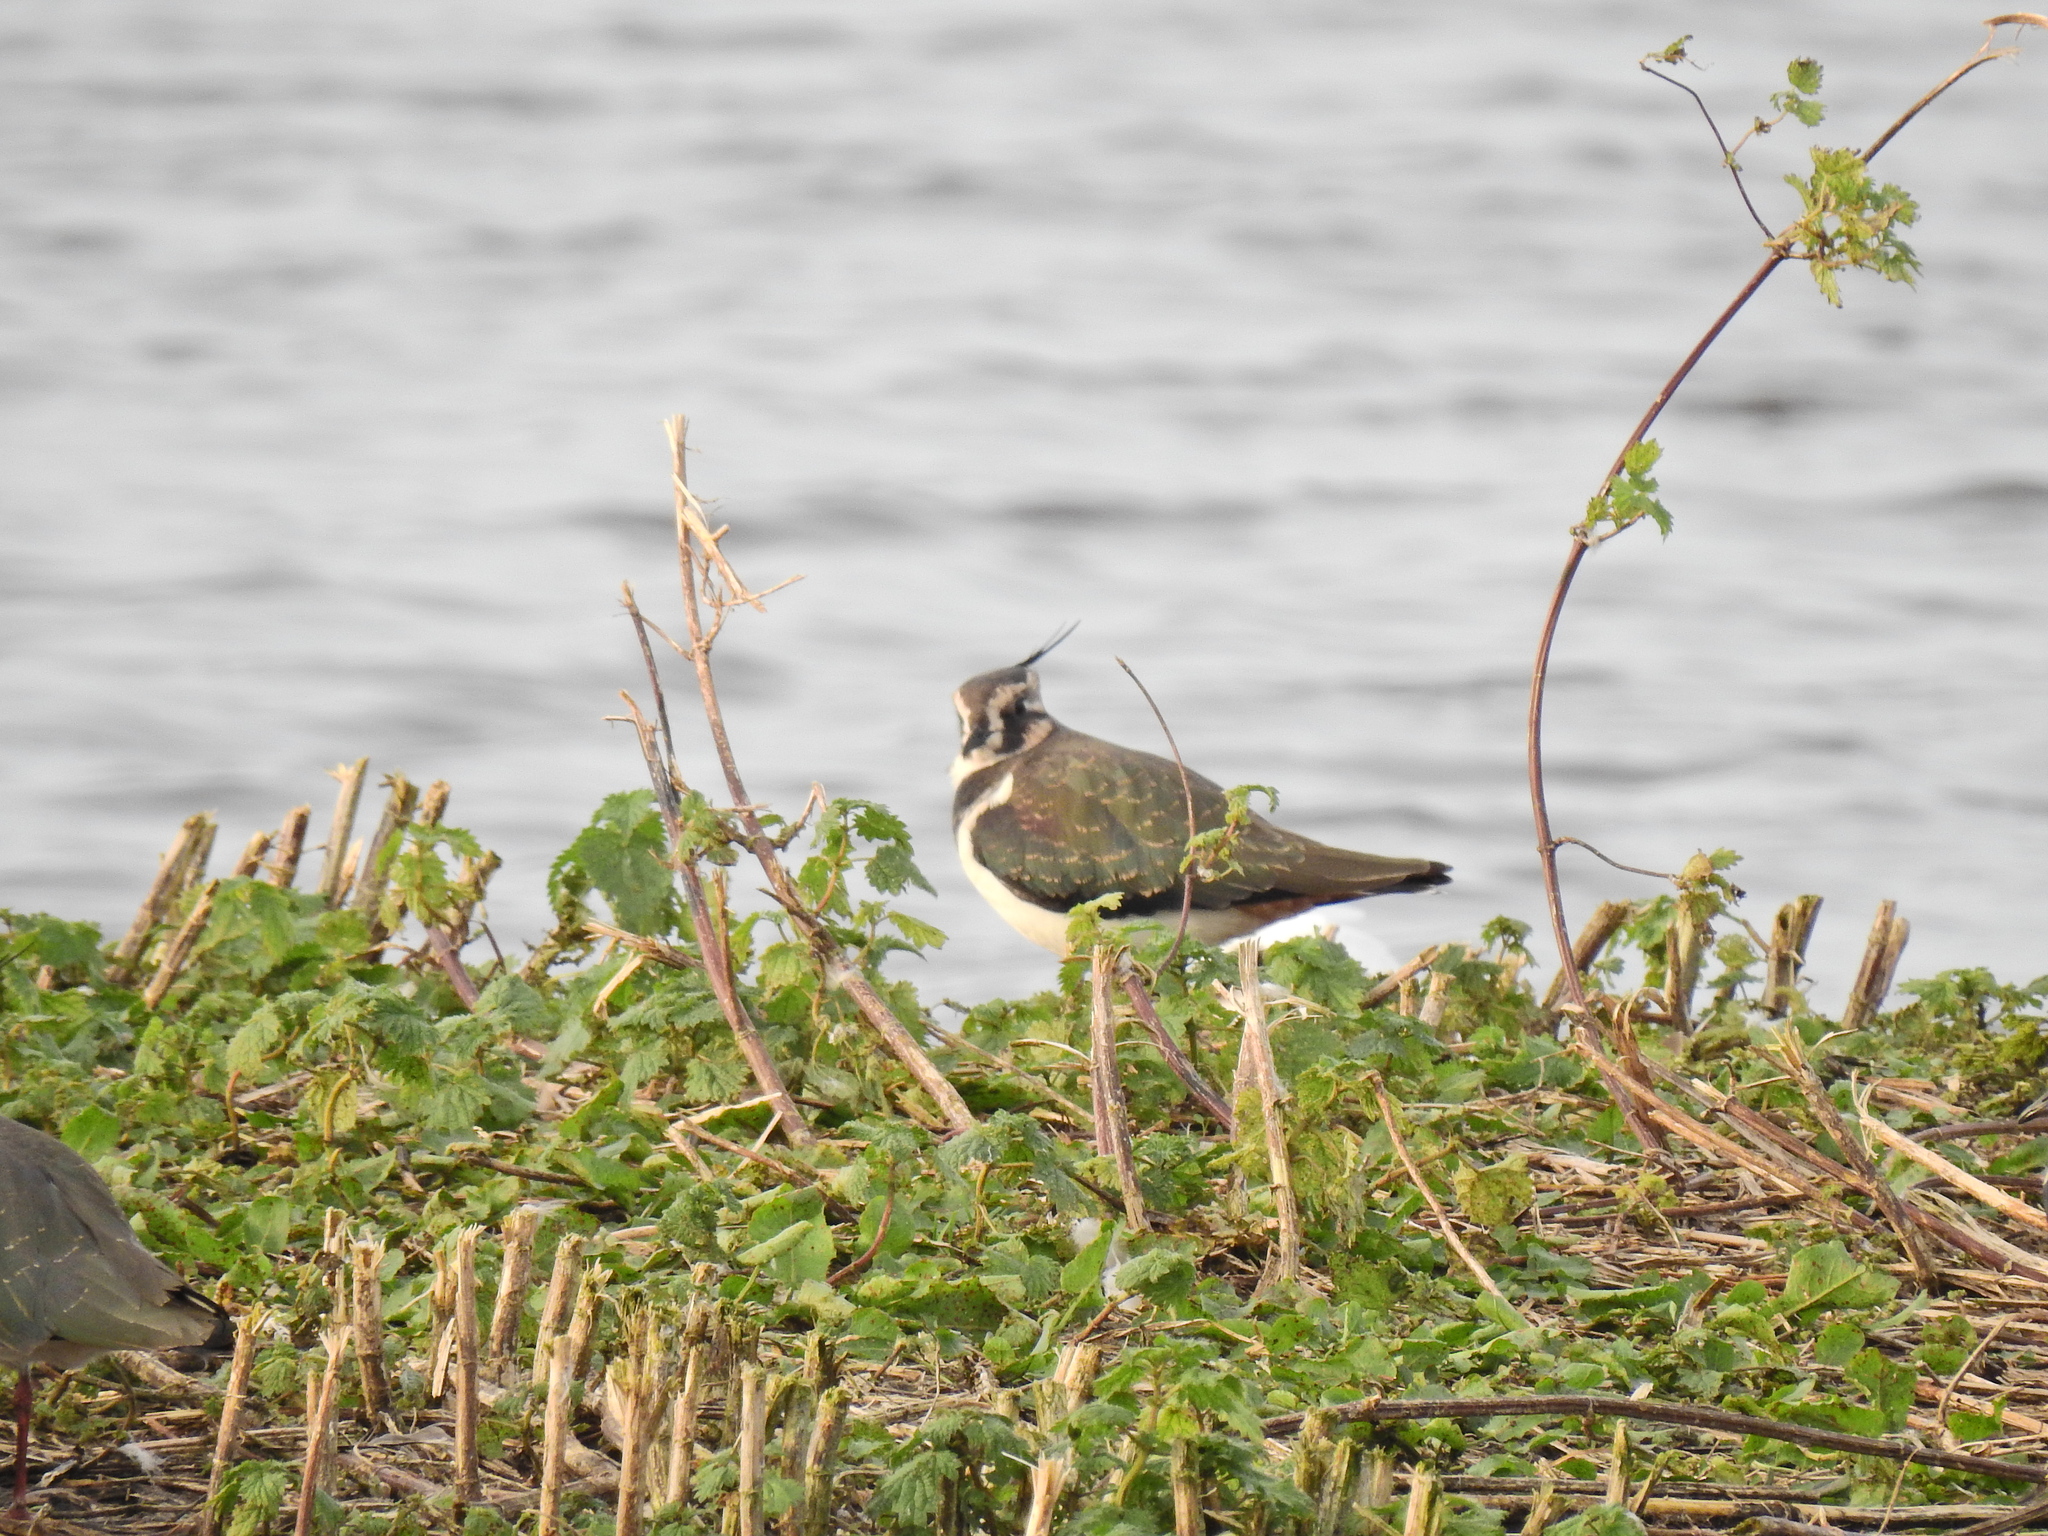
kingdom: Animalia
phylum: Chordata
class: Aves
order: Charadriiformes
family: Charadriidae
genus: Vanellus
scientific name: Vanellus vanellus
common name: Northern lapwing
